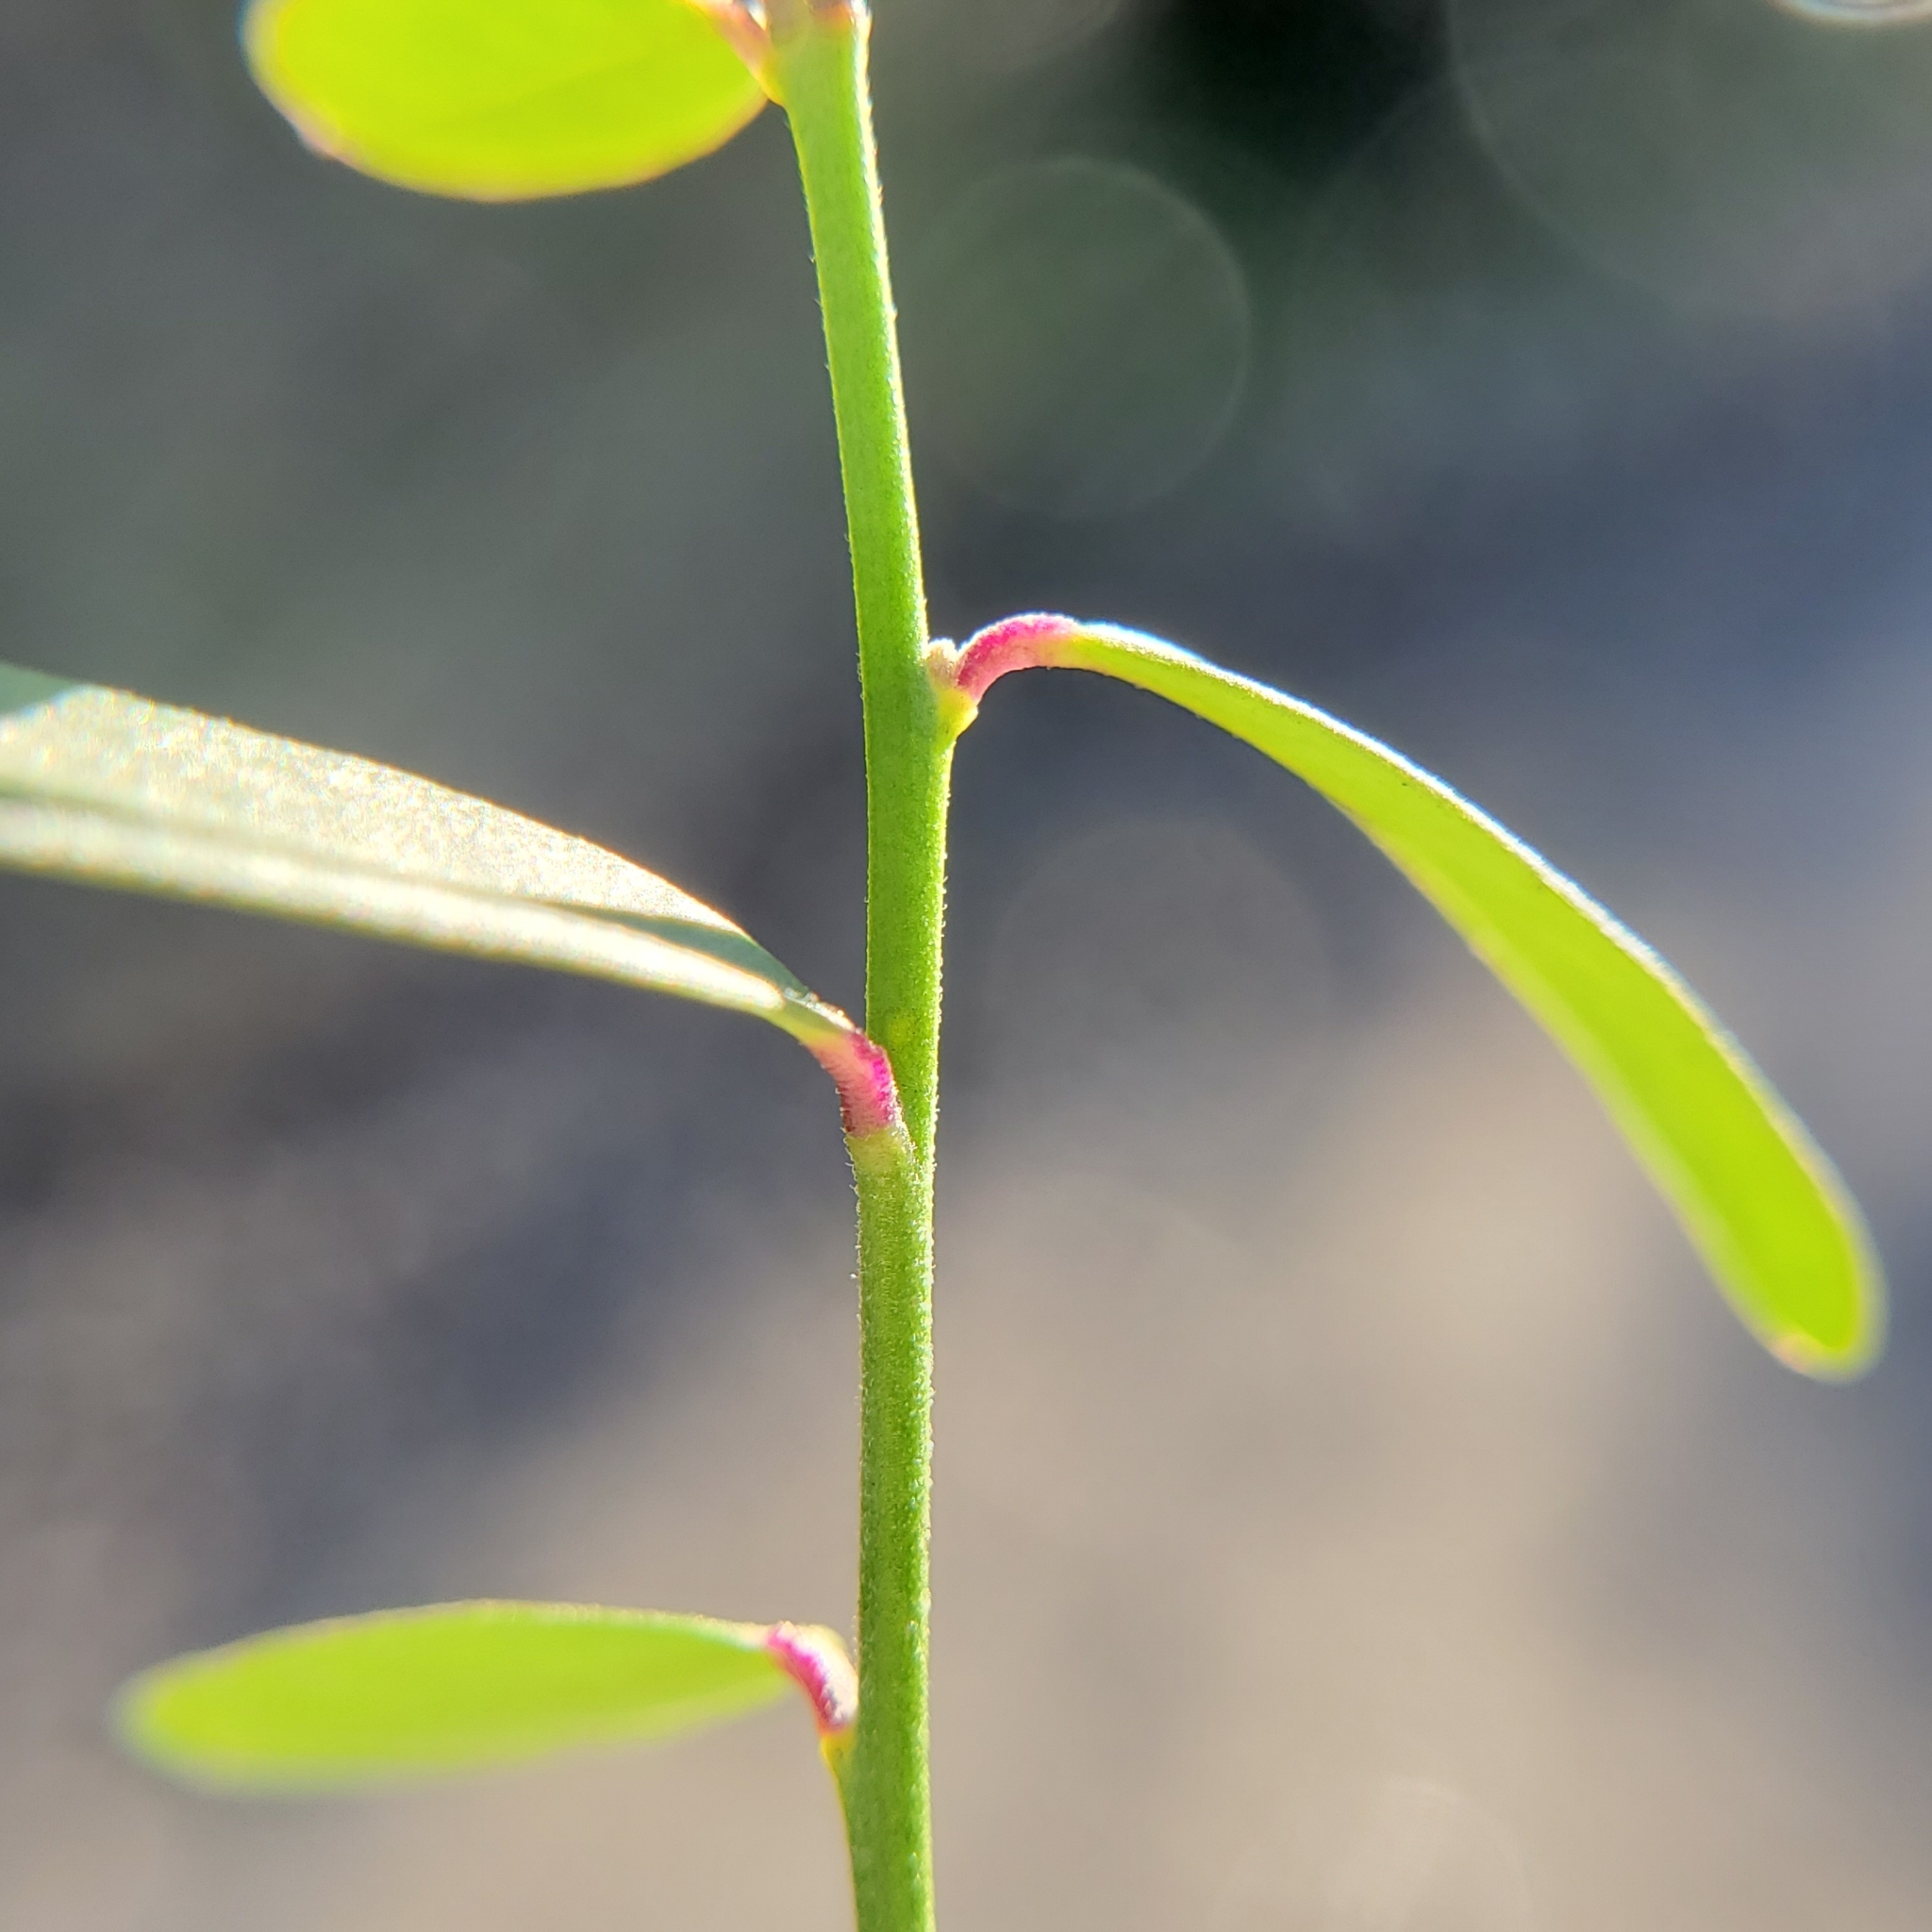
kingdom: Plantae
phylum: Tracheophyta
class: Magnoliopsida
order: Fabales
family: Polygalaceae
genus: Rhinotropis
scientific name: Rhinotropis cornuta
